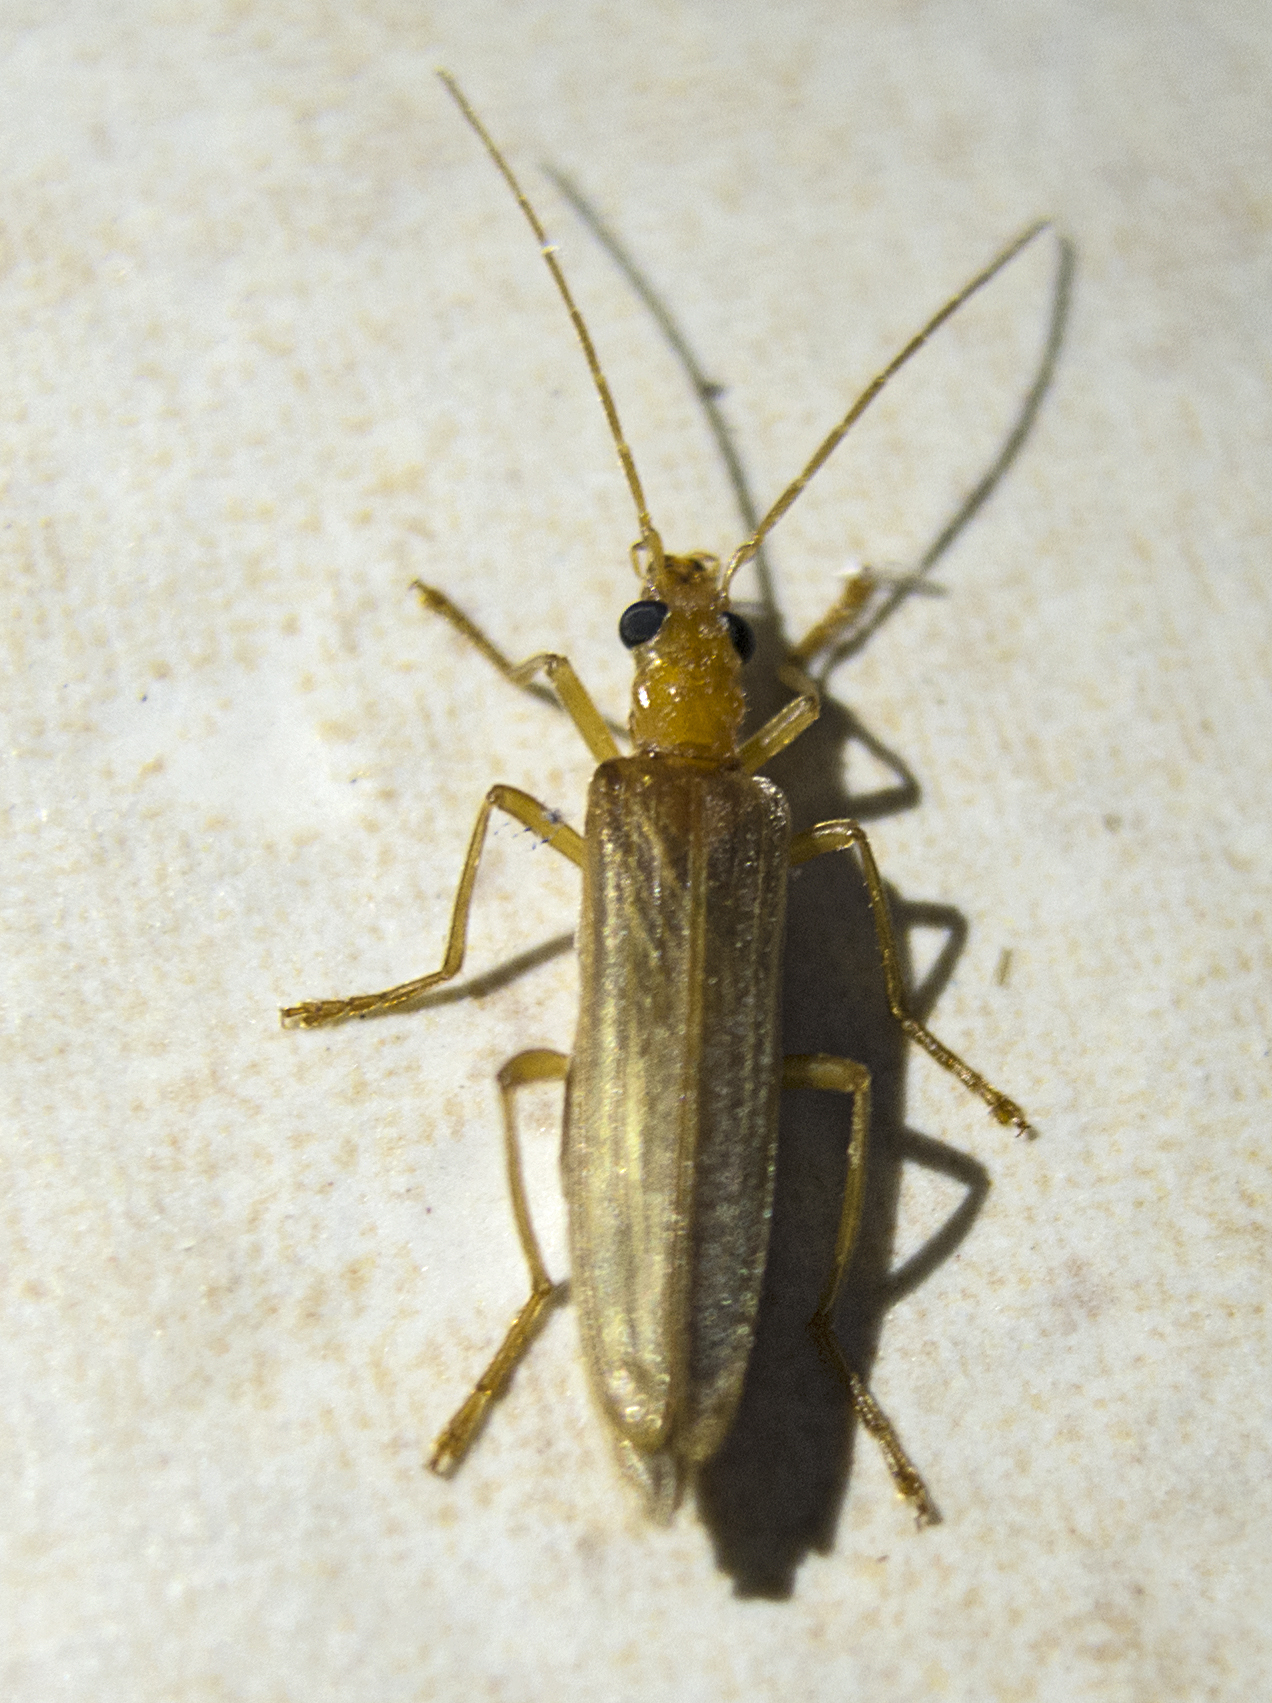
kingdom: Animalia
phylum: Arthropoda
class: Insecta
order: Coleoptera
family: Oedemeridae
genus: Oedemera
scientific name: Oedemera flavicans
